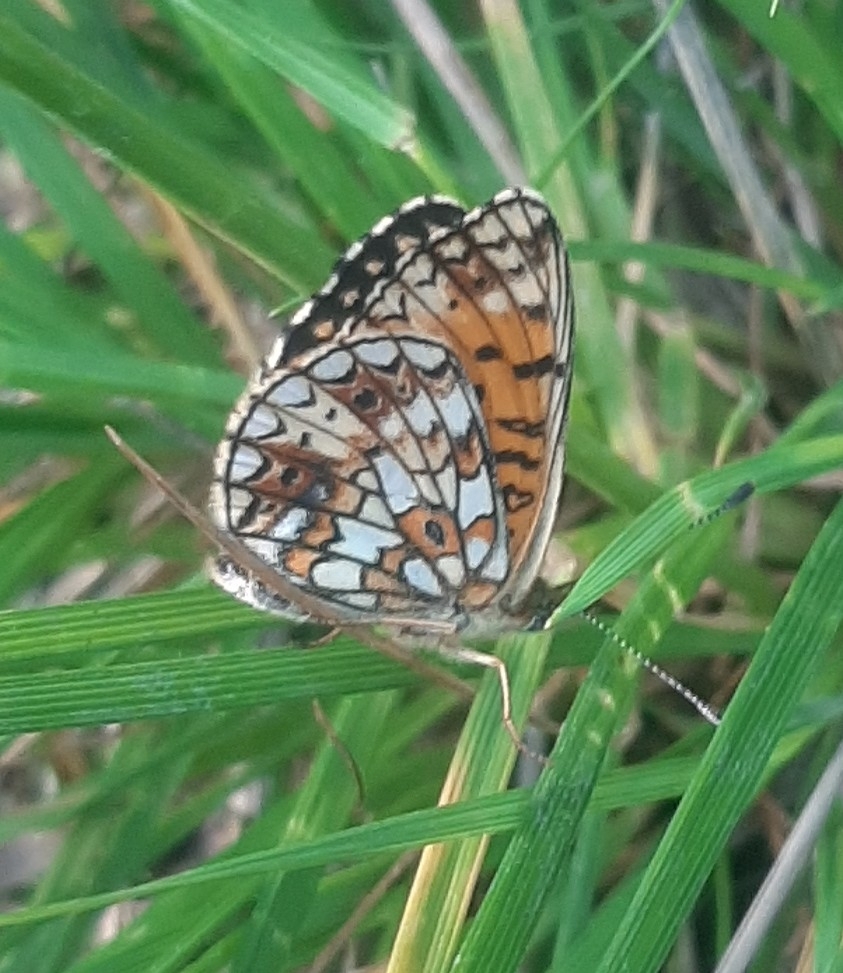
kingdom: Animalia
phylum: Arthropoda
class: Insecta
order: Lepidoptera
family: Nymphalidae
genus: Boloria
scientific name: Boloria selene
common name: Small pearl-bordered fritillary
